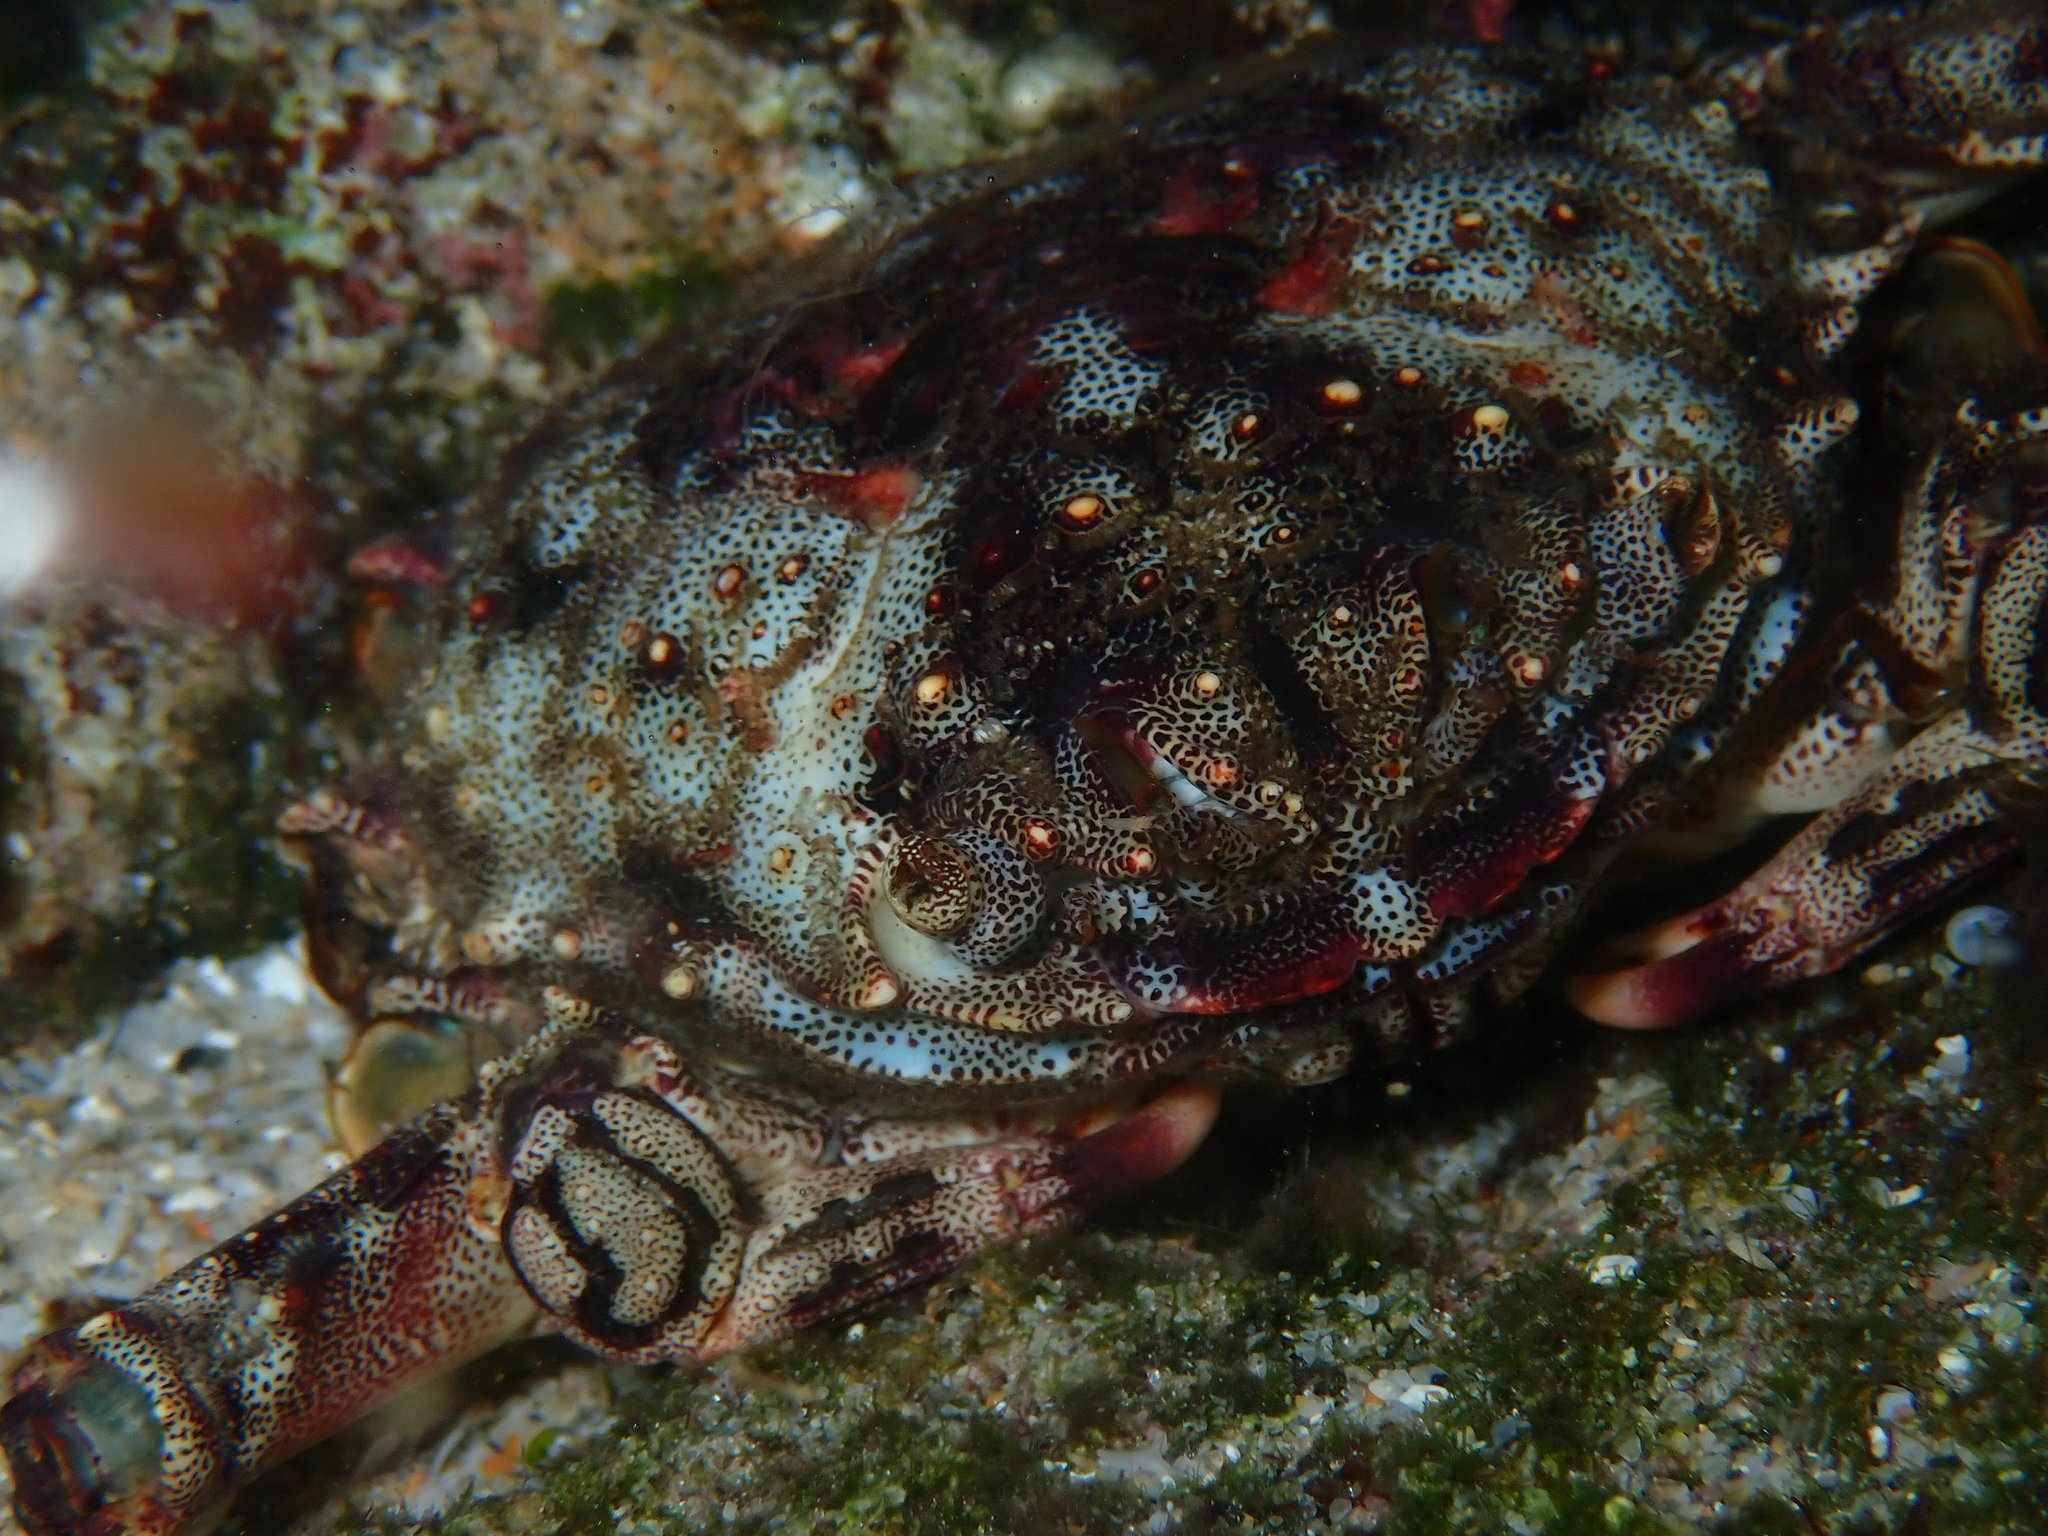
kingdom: Animalia
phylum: Arthropoda
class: Malacostraca
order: Decapoda
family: Plagusiidae
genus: Plagusia
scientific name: Plagusia depressa
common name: Flattened crab
